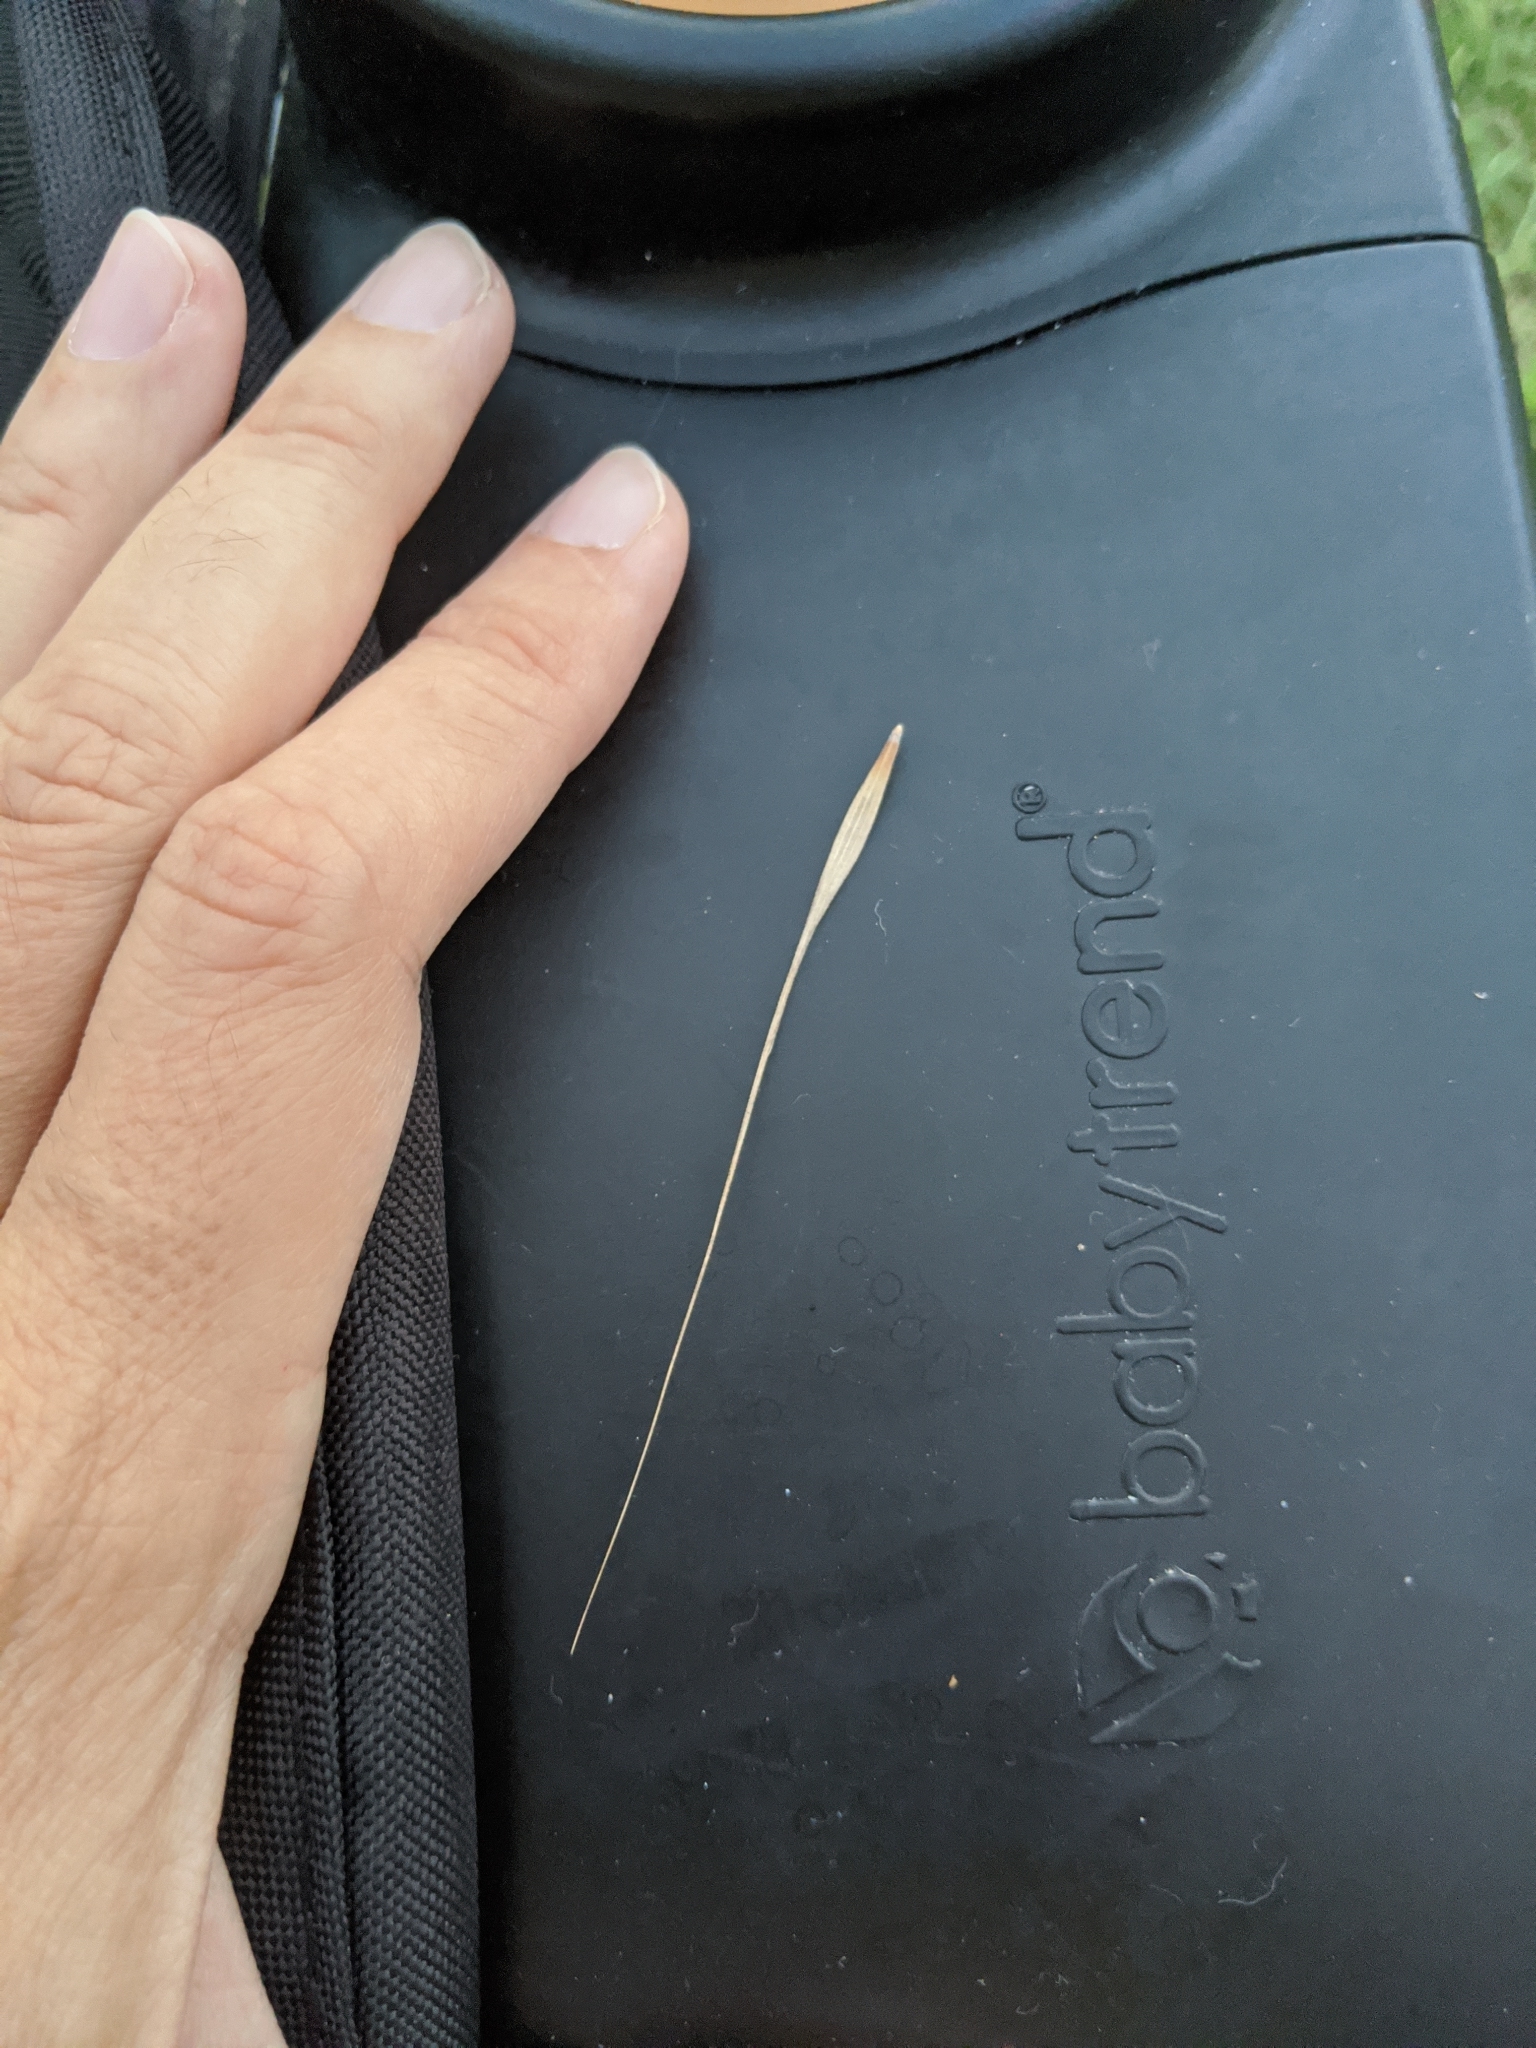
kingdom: Plantae
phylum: Tracheophyta
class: Liliopsida
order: Poales
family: Poaceae
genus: Bromus
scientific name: Bromus diandrus
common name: Ripgut brome
